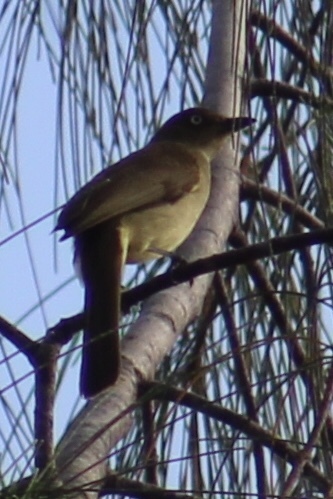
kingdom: Animalia
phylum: Chordata
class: Aves
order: Passeriformes
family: Pycnonotidae
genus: Andropadus
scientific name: Andropadus importunus
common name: Sombre greenbul
